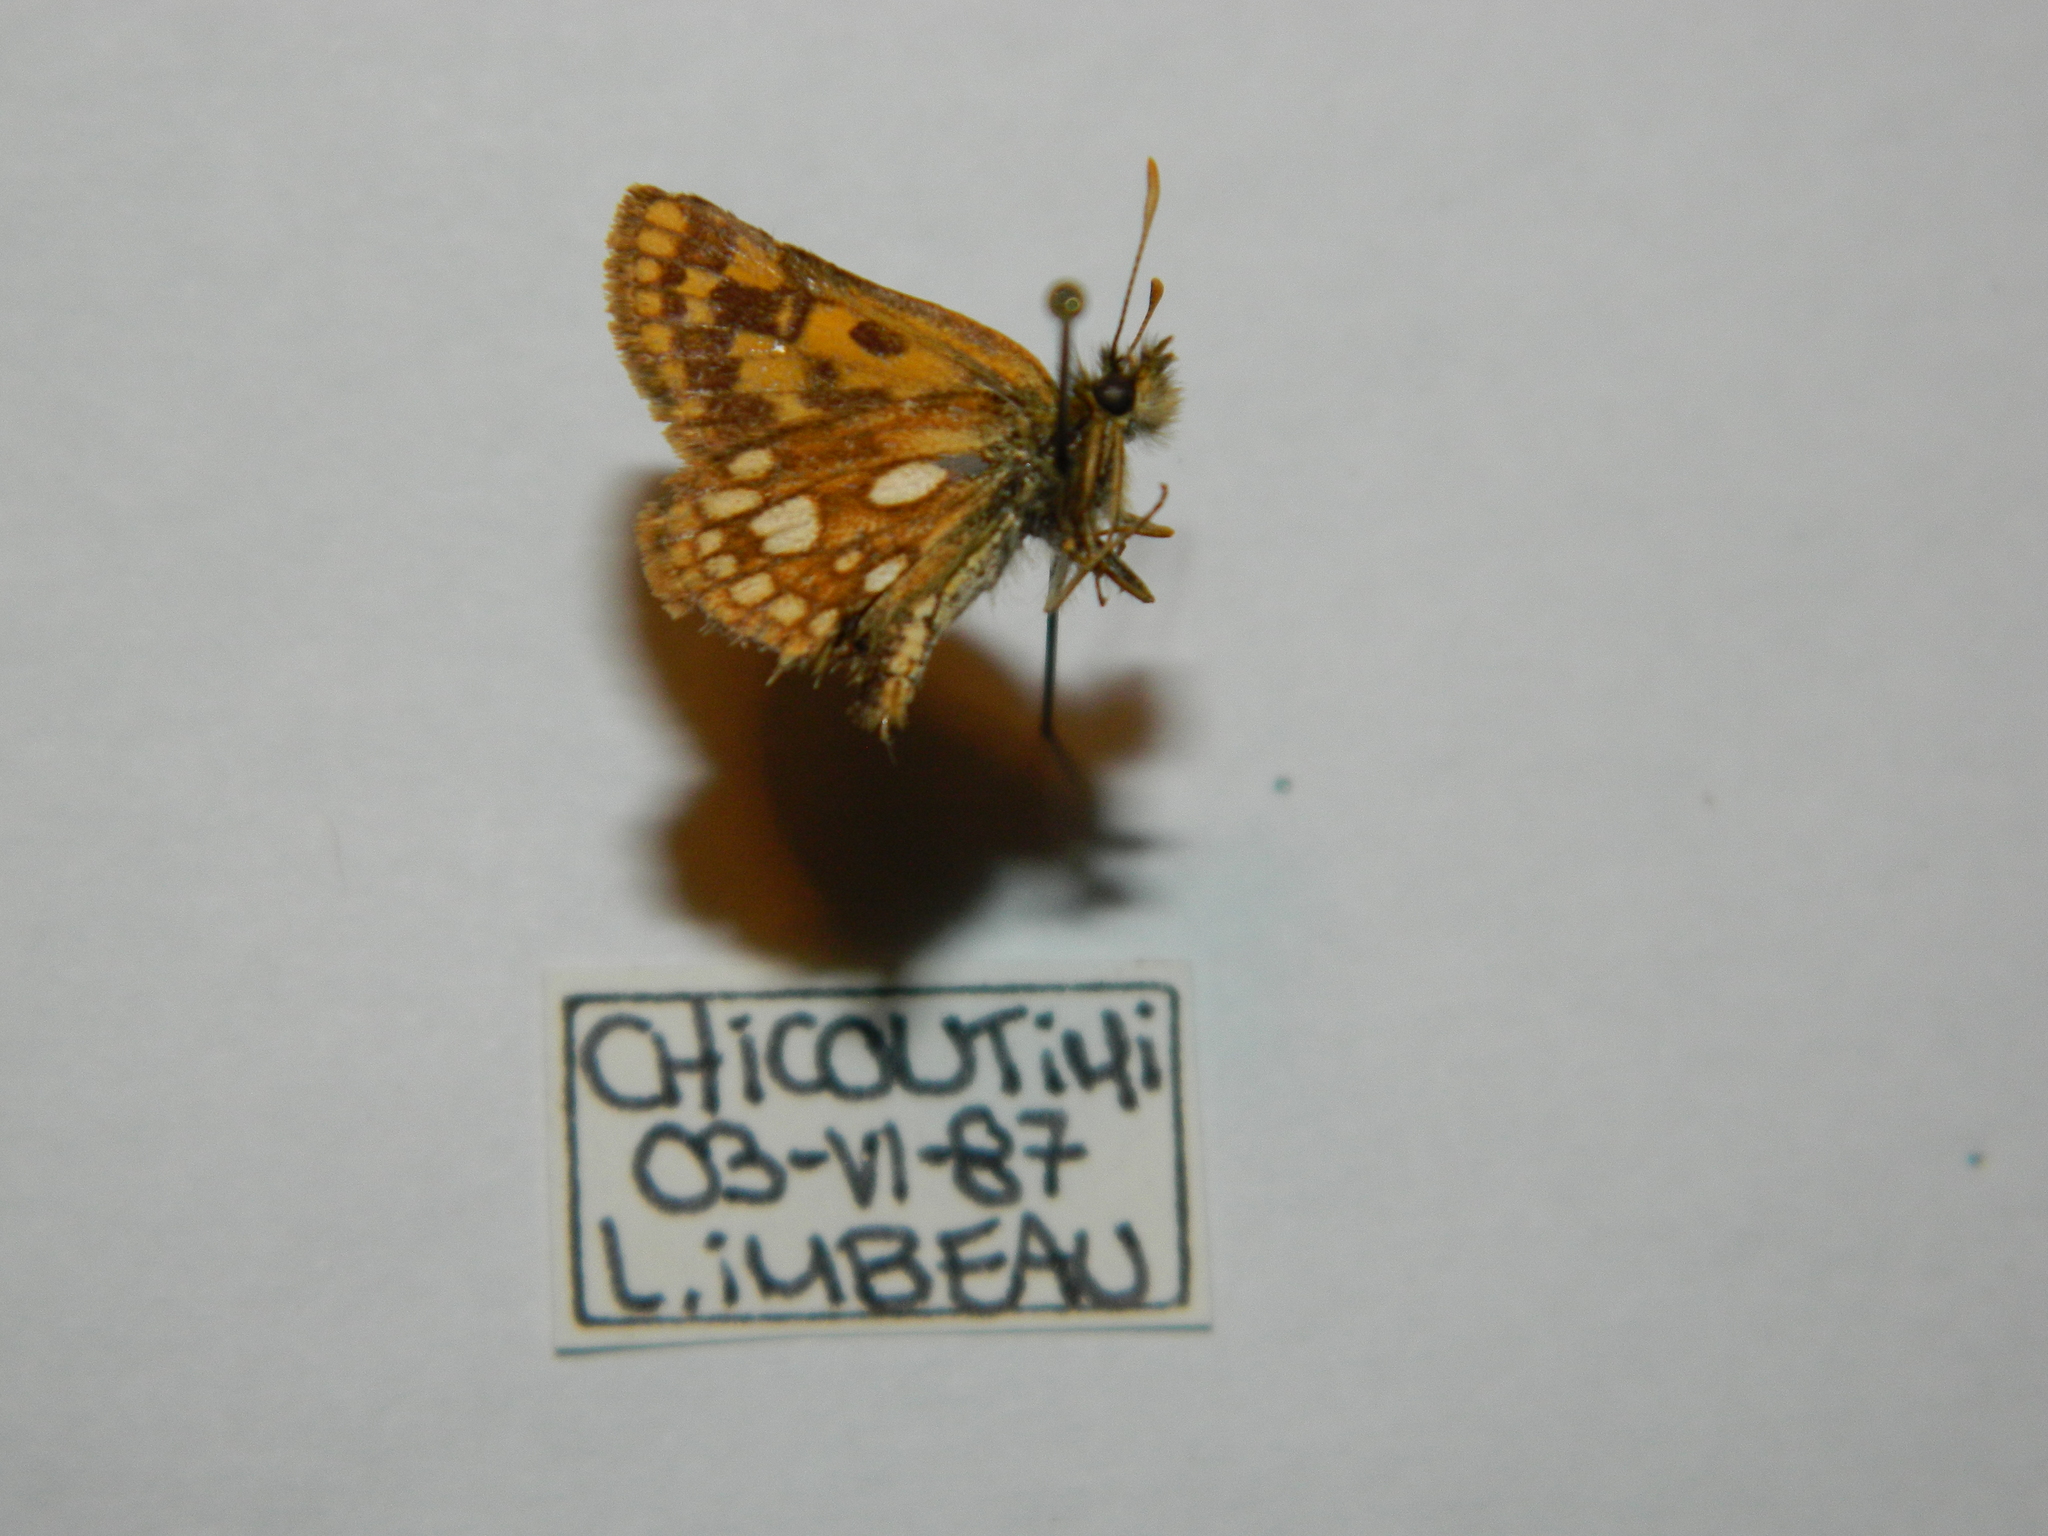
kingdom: Animalia
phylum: Arthropoda
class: Insecta
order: Lepidoptera
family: Hesperiidae
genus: Carterocephalus
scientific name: Carterocephalus mandan
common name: Arctic skipperling
